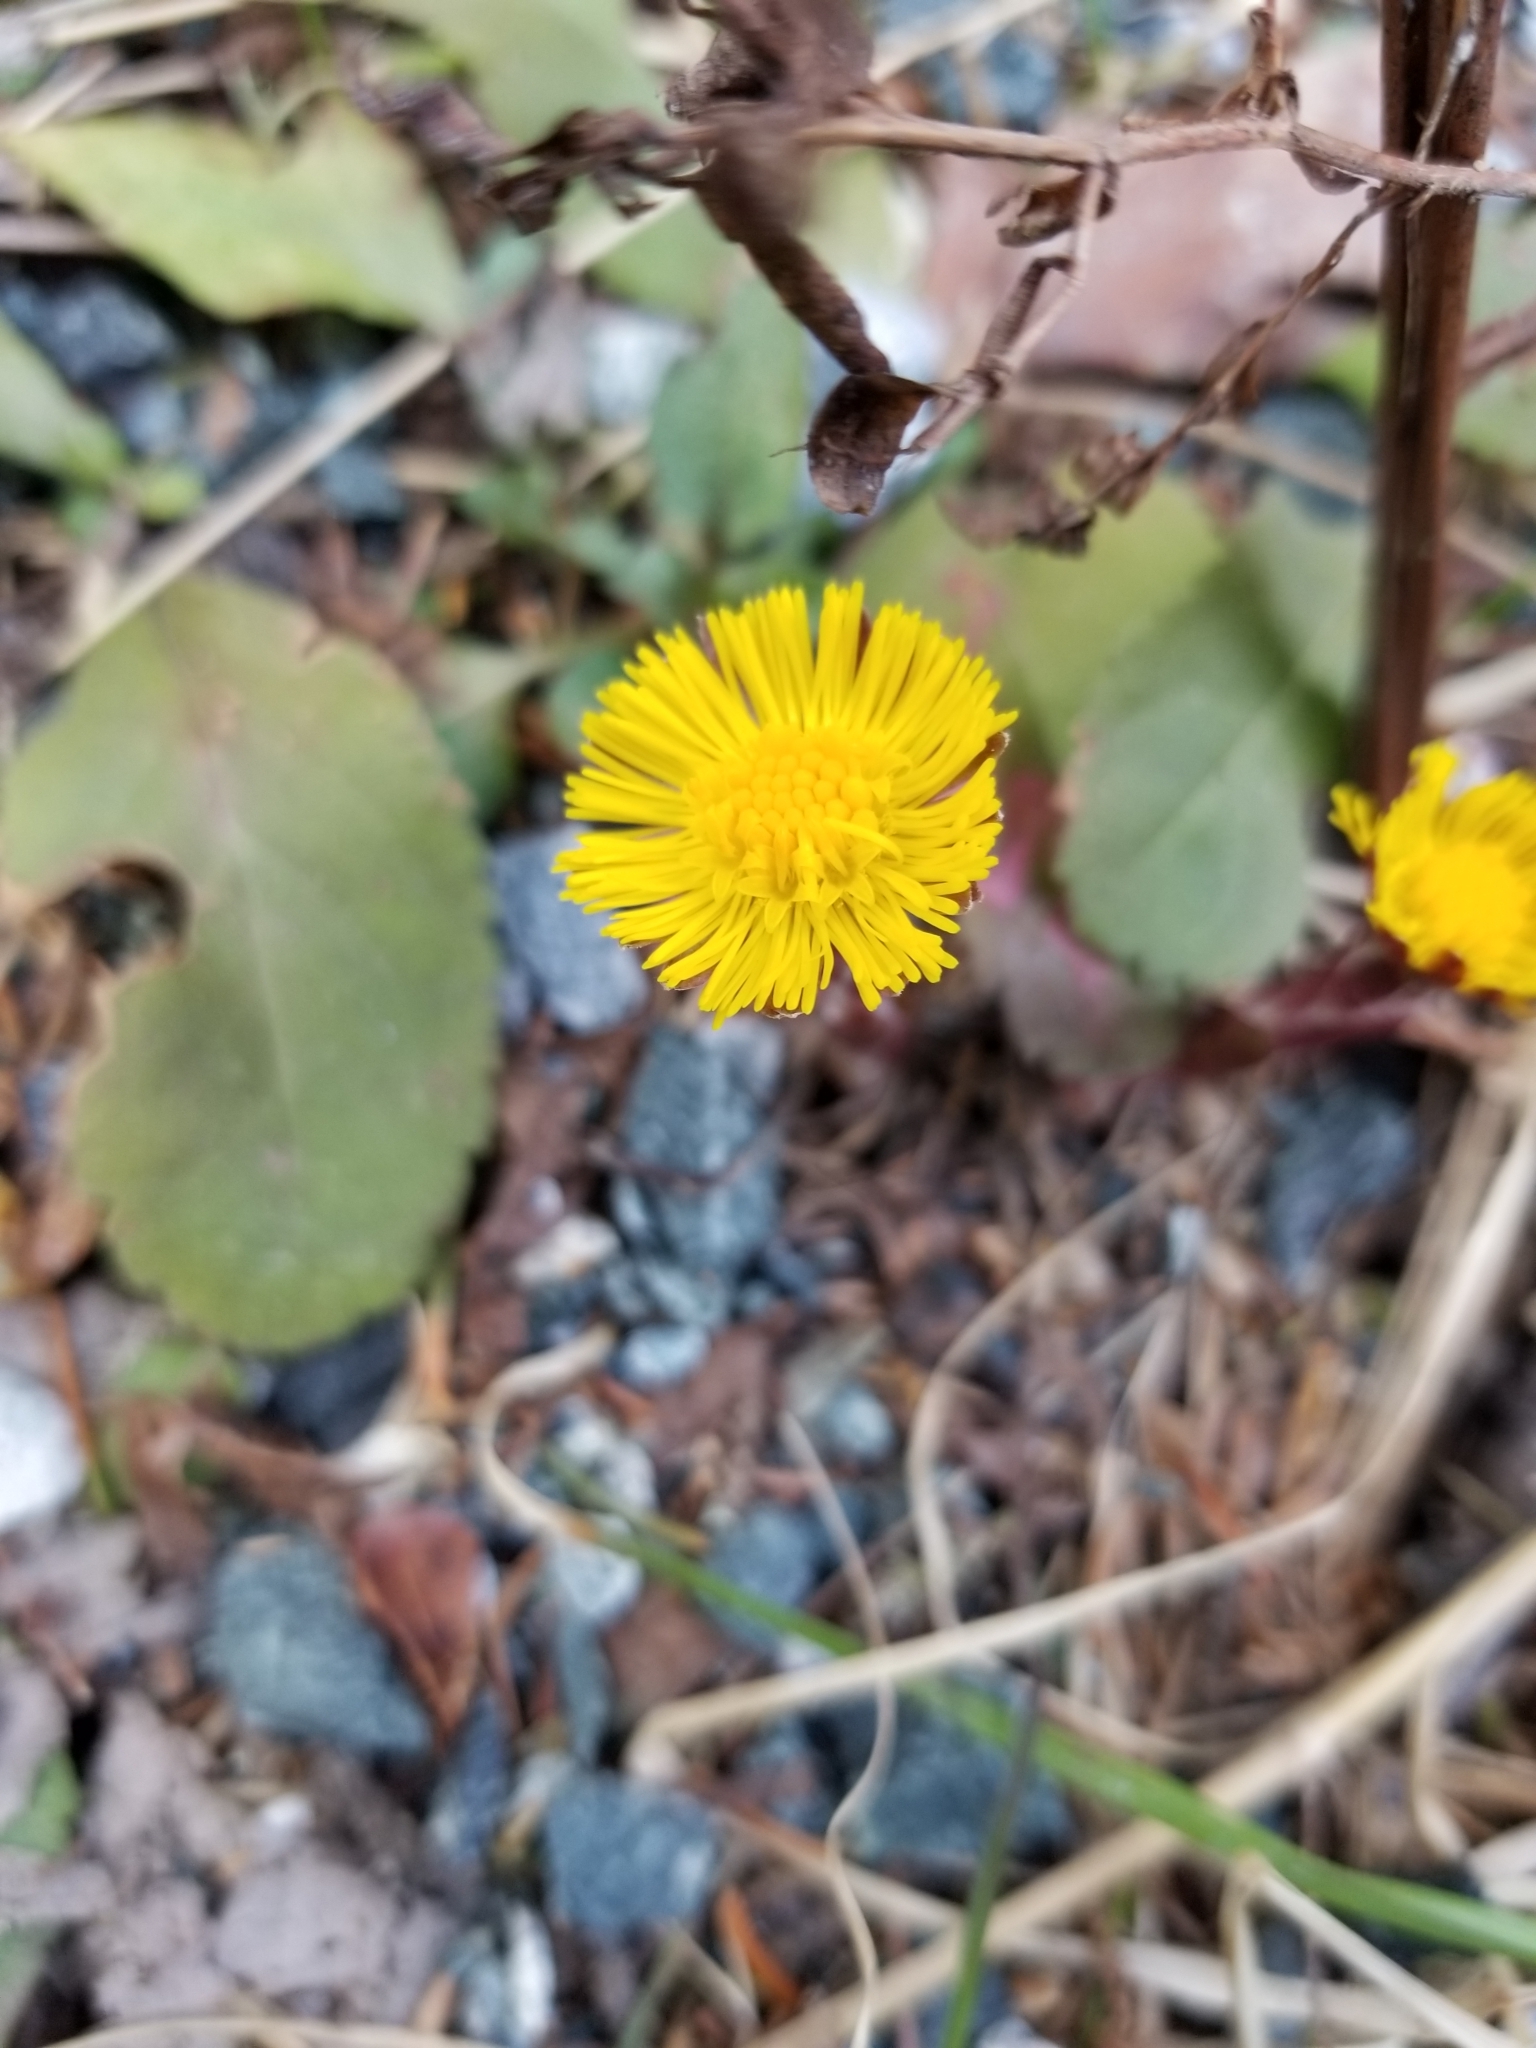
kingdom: Plantae
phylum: Tracheophyta
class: Magnoliopsida
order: Asterales
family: Asteraceae
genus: Tussilago
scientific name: Tussilago farfara
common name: Coltsfoot
